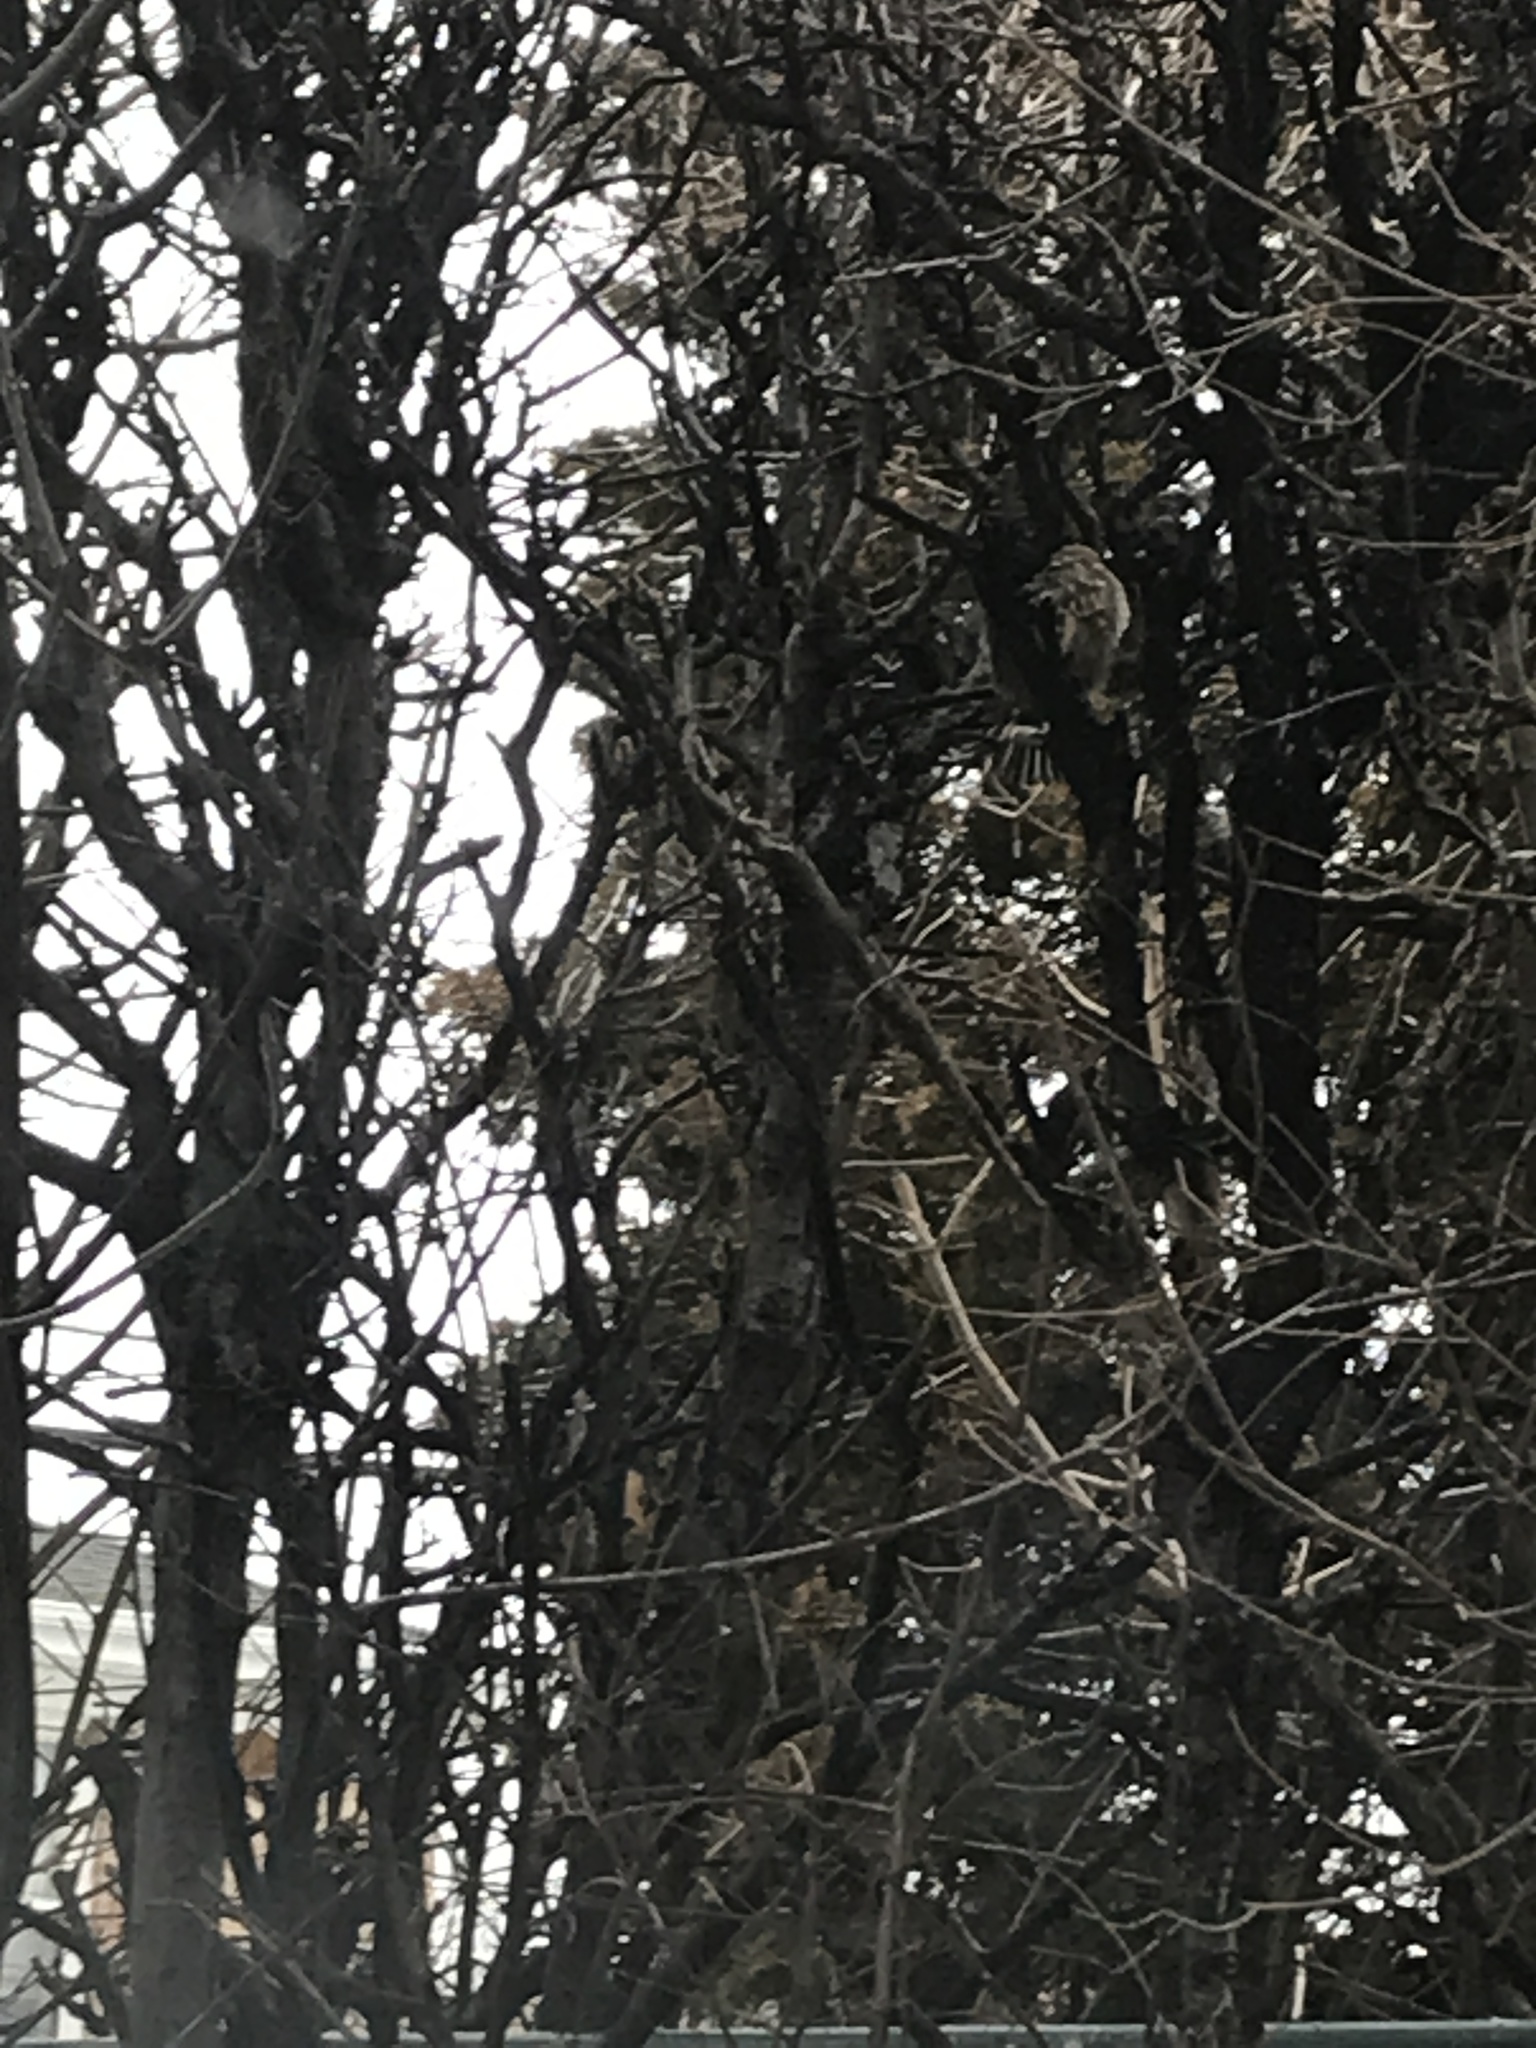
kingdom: Animalia
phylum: Chordata
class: Aves
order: Passeriformes
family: Passeridae
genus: Passer
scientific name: Passer domesticus
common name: House sparrow
